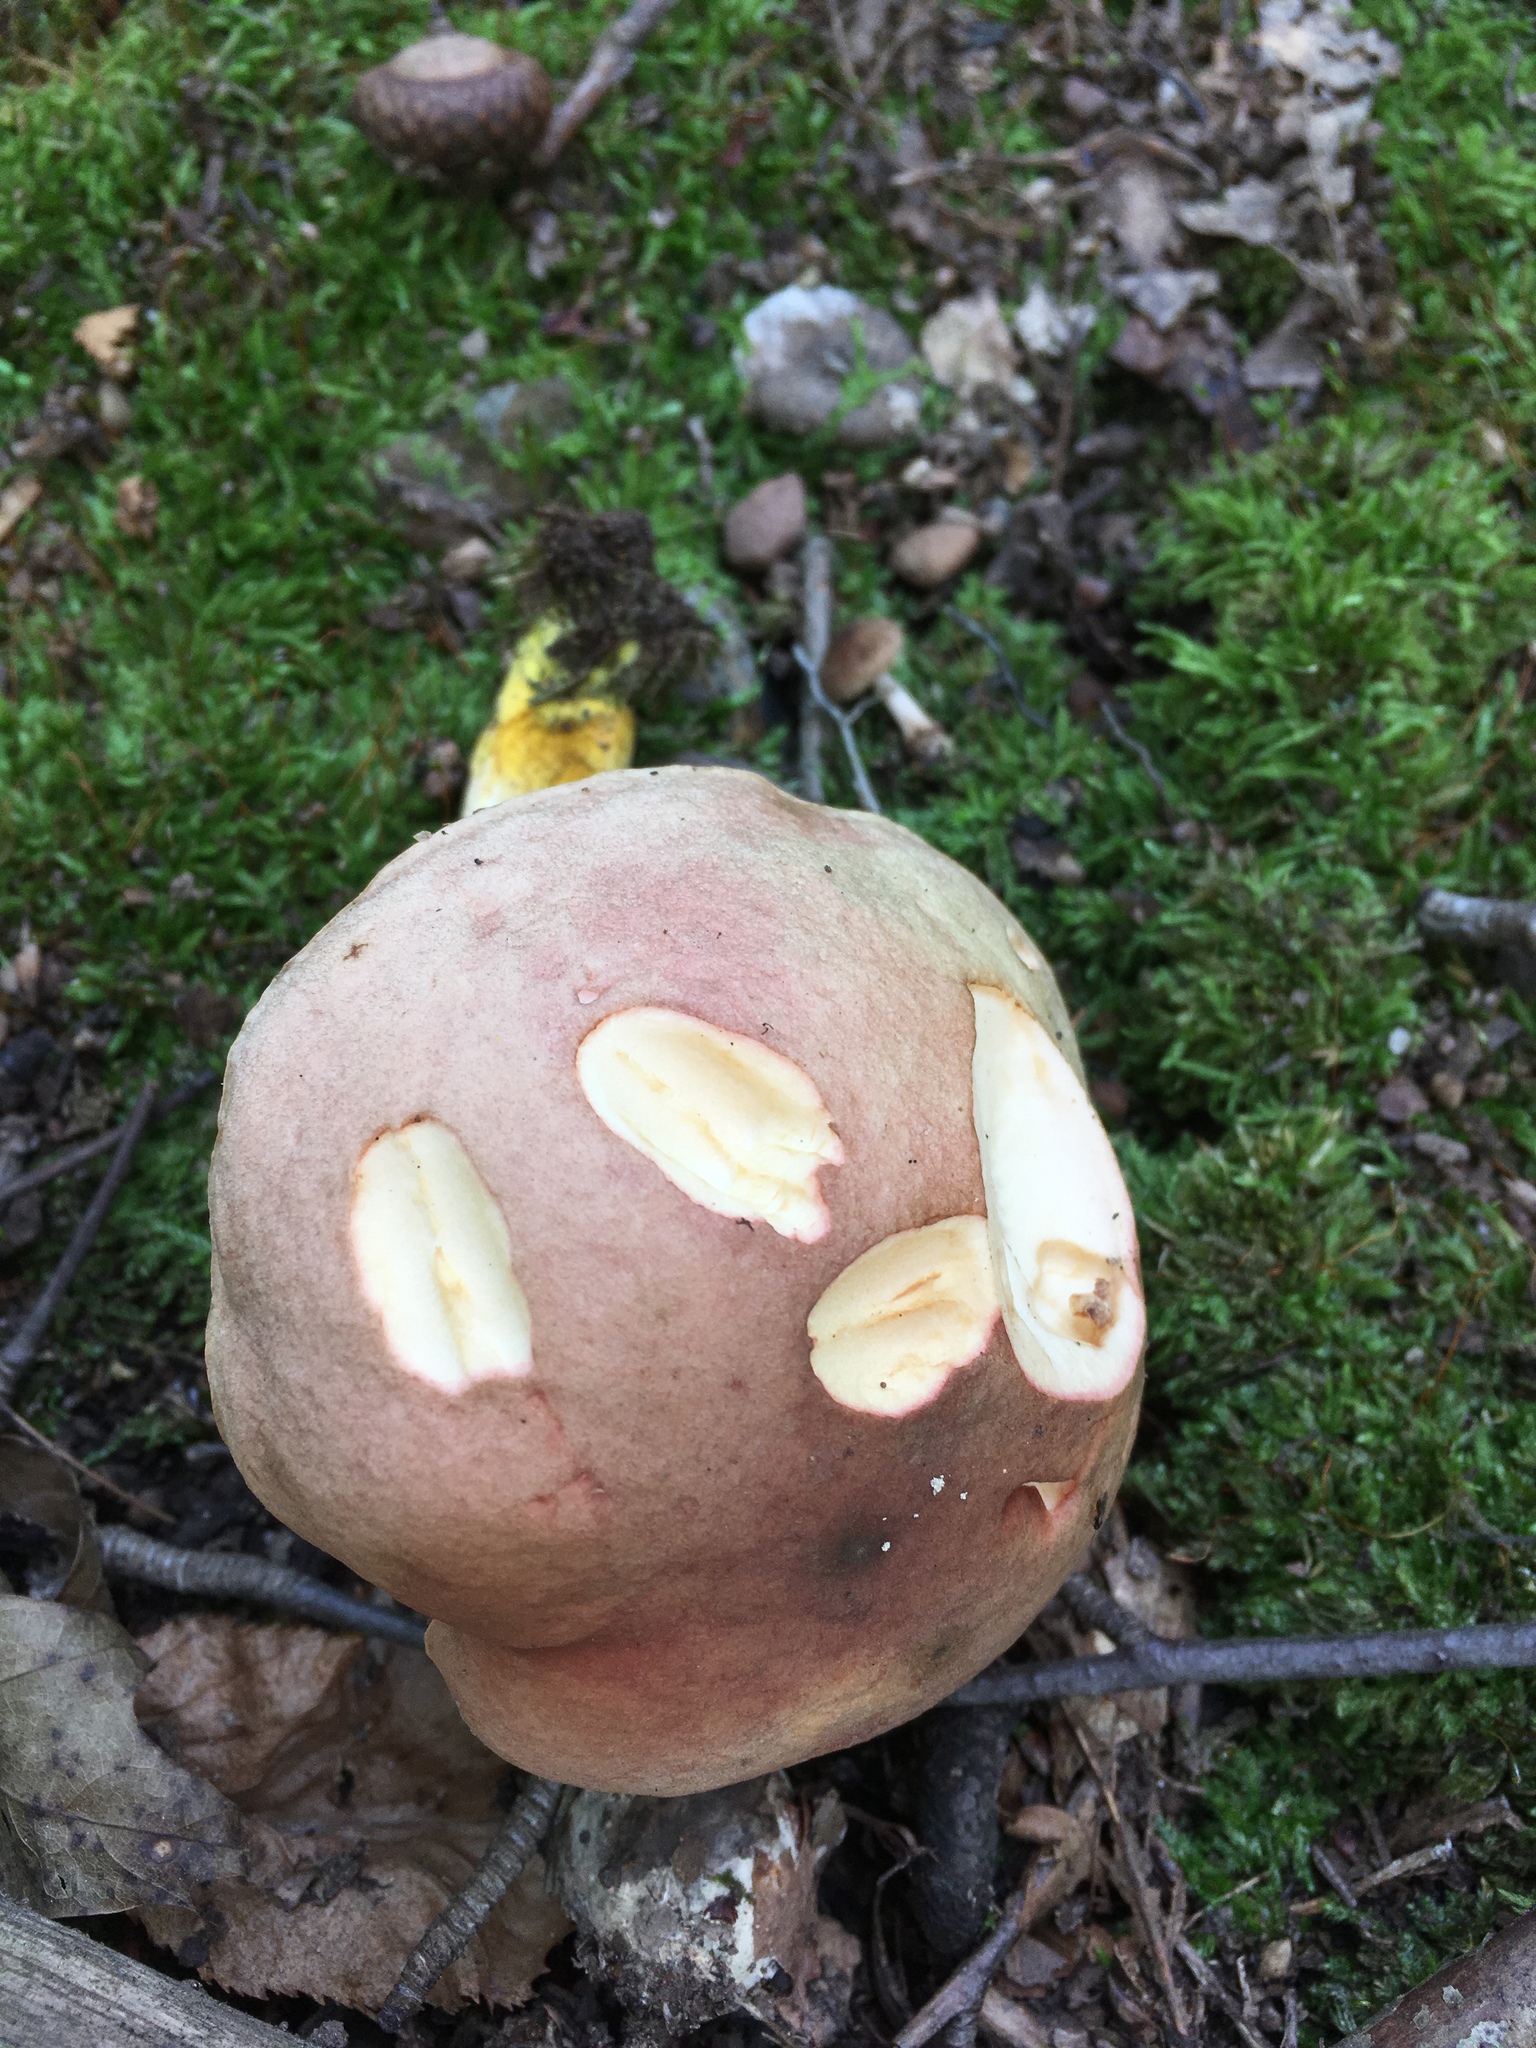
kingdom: Fungi
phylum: Basidiomycota
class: Agaricomycetes
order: Boletales
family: Boletaceae
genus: Harrya
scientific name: Harrya chromipes
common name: Chrome-footed bolete
